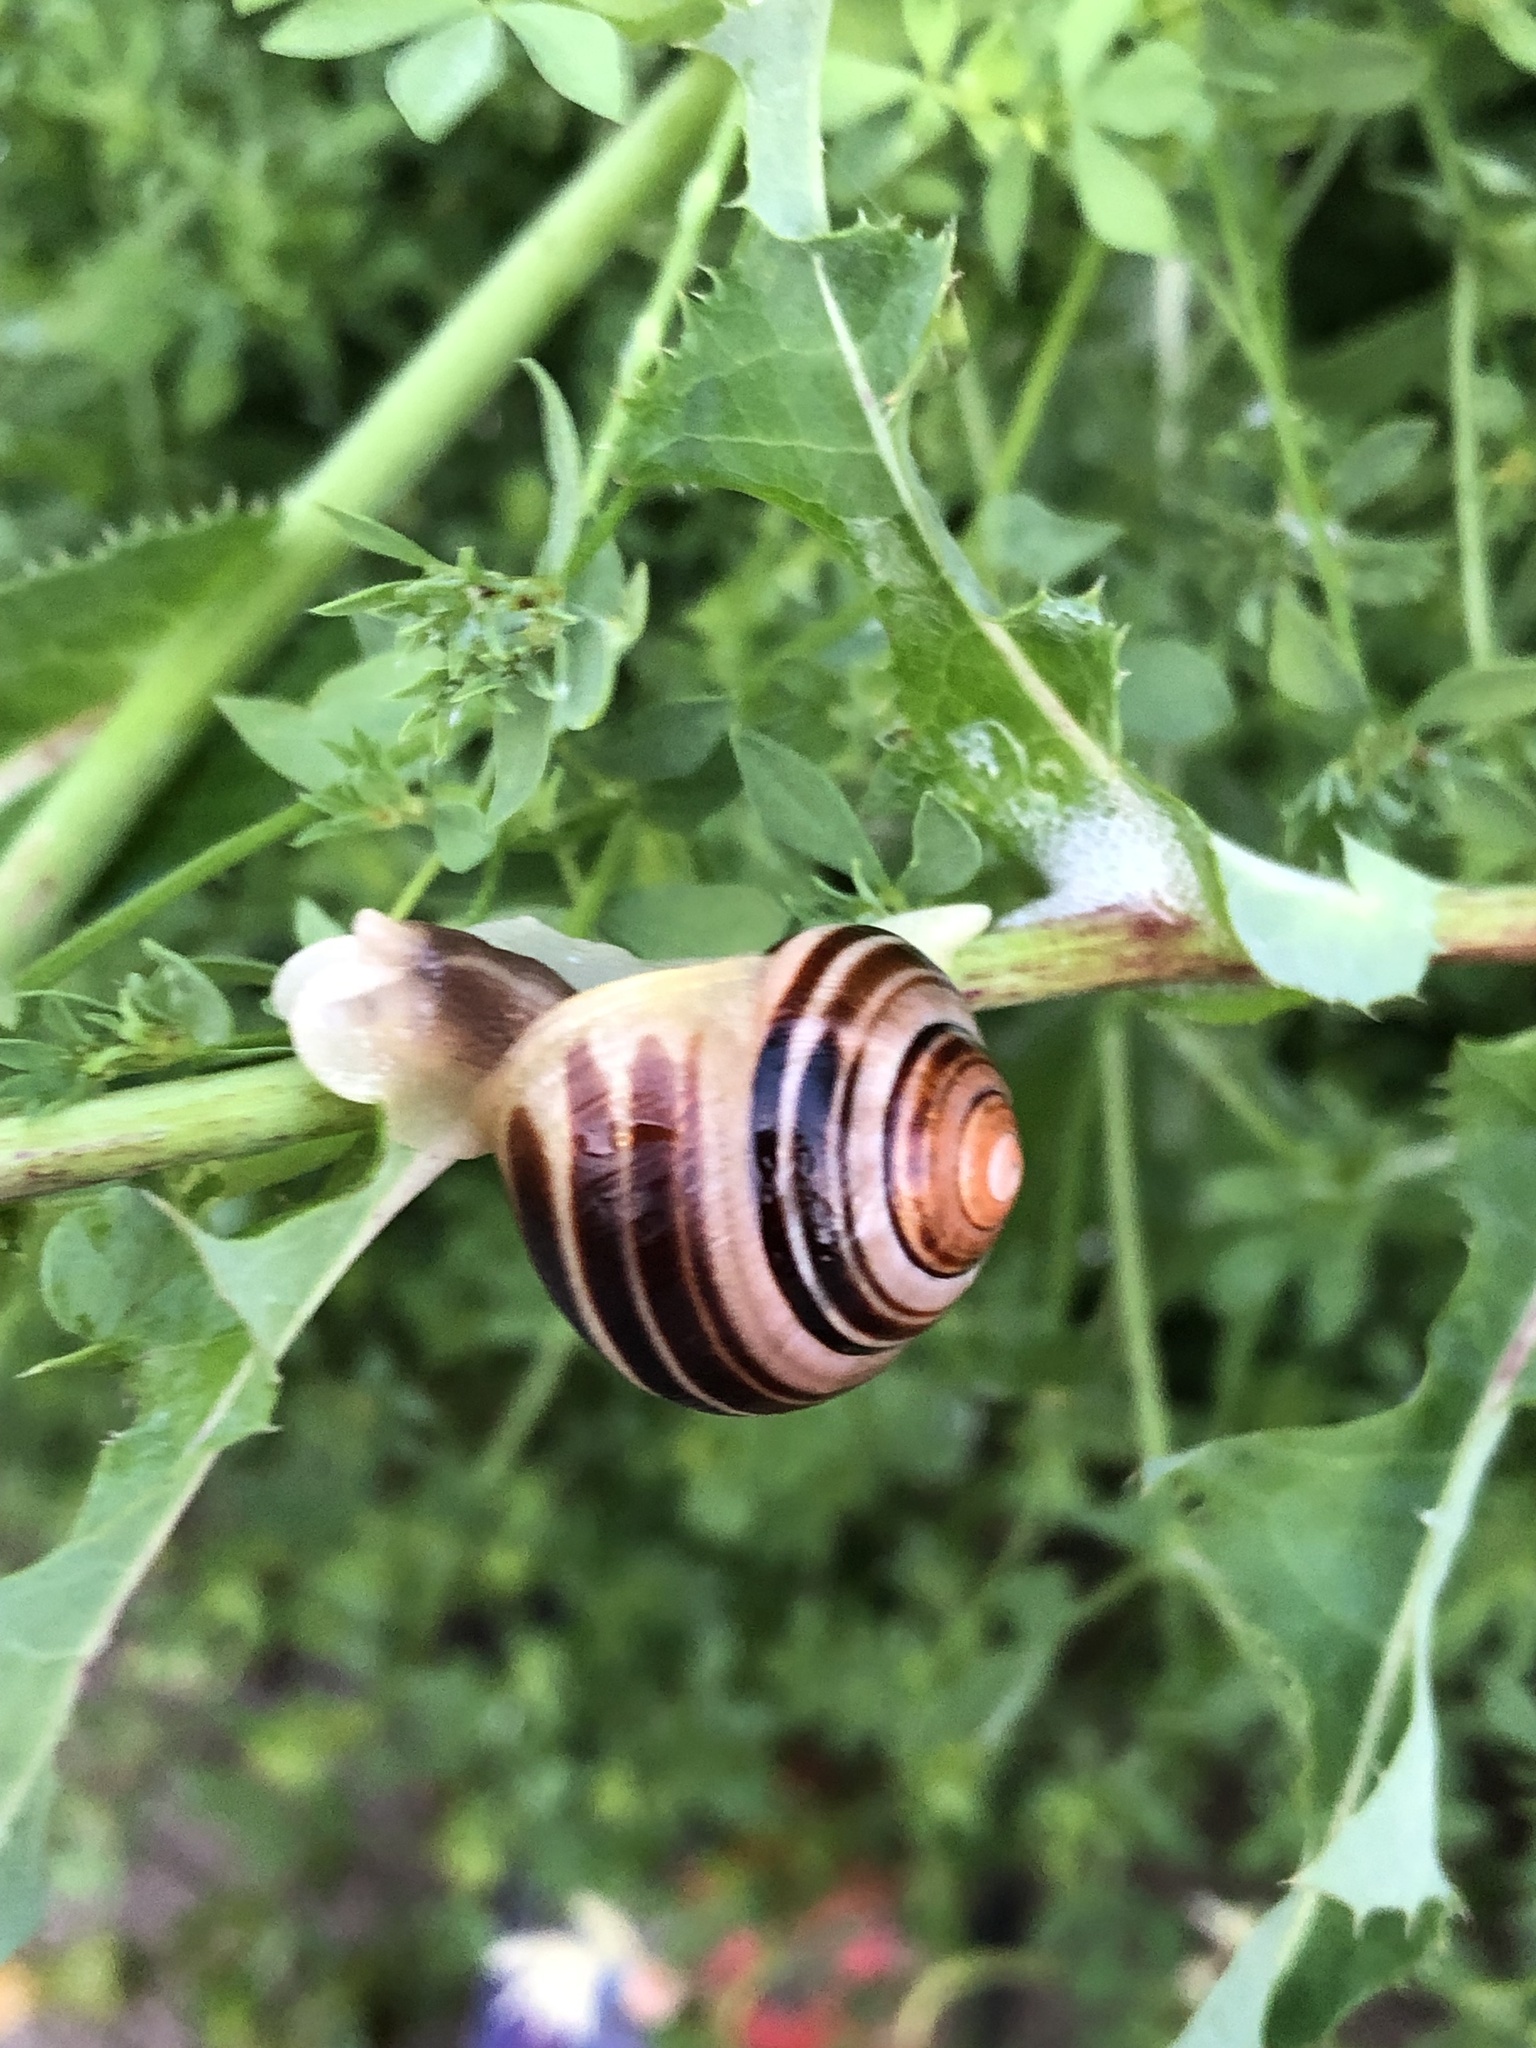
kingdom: Animalia
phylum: Mollusca
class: Gastropoda
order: Stylommatophora
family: Helicidae
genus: Cepaea
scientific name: Cepaea nemoralis
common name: Grovesnail
